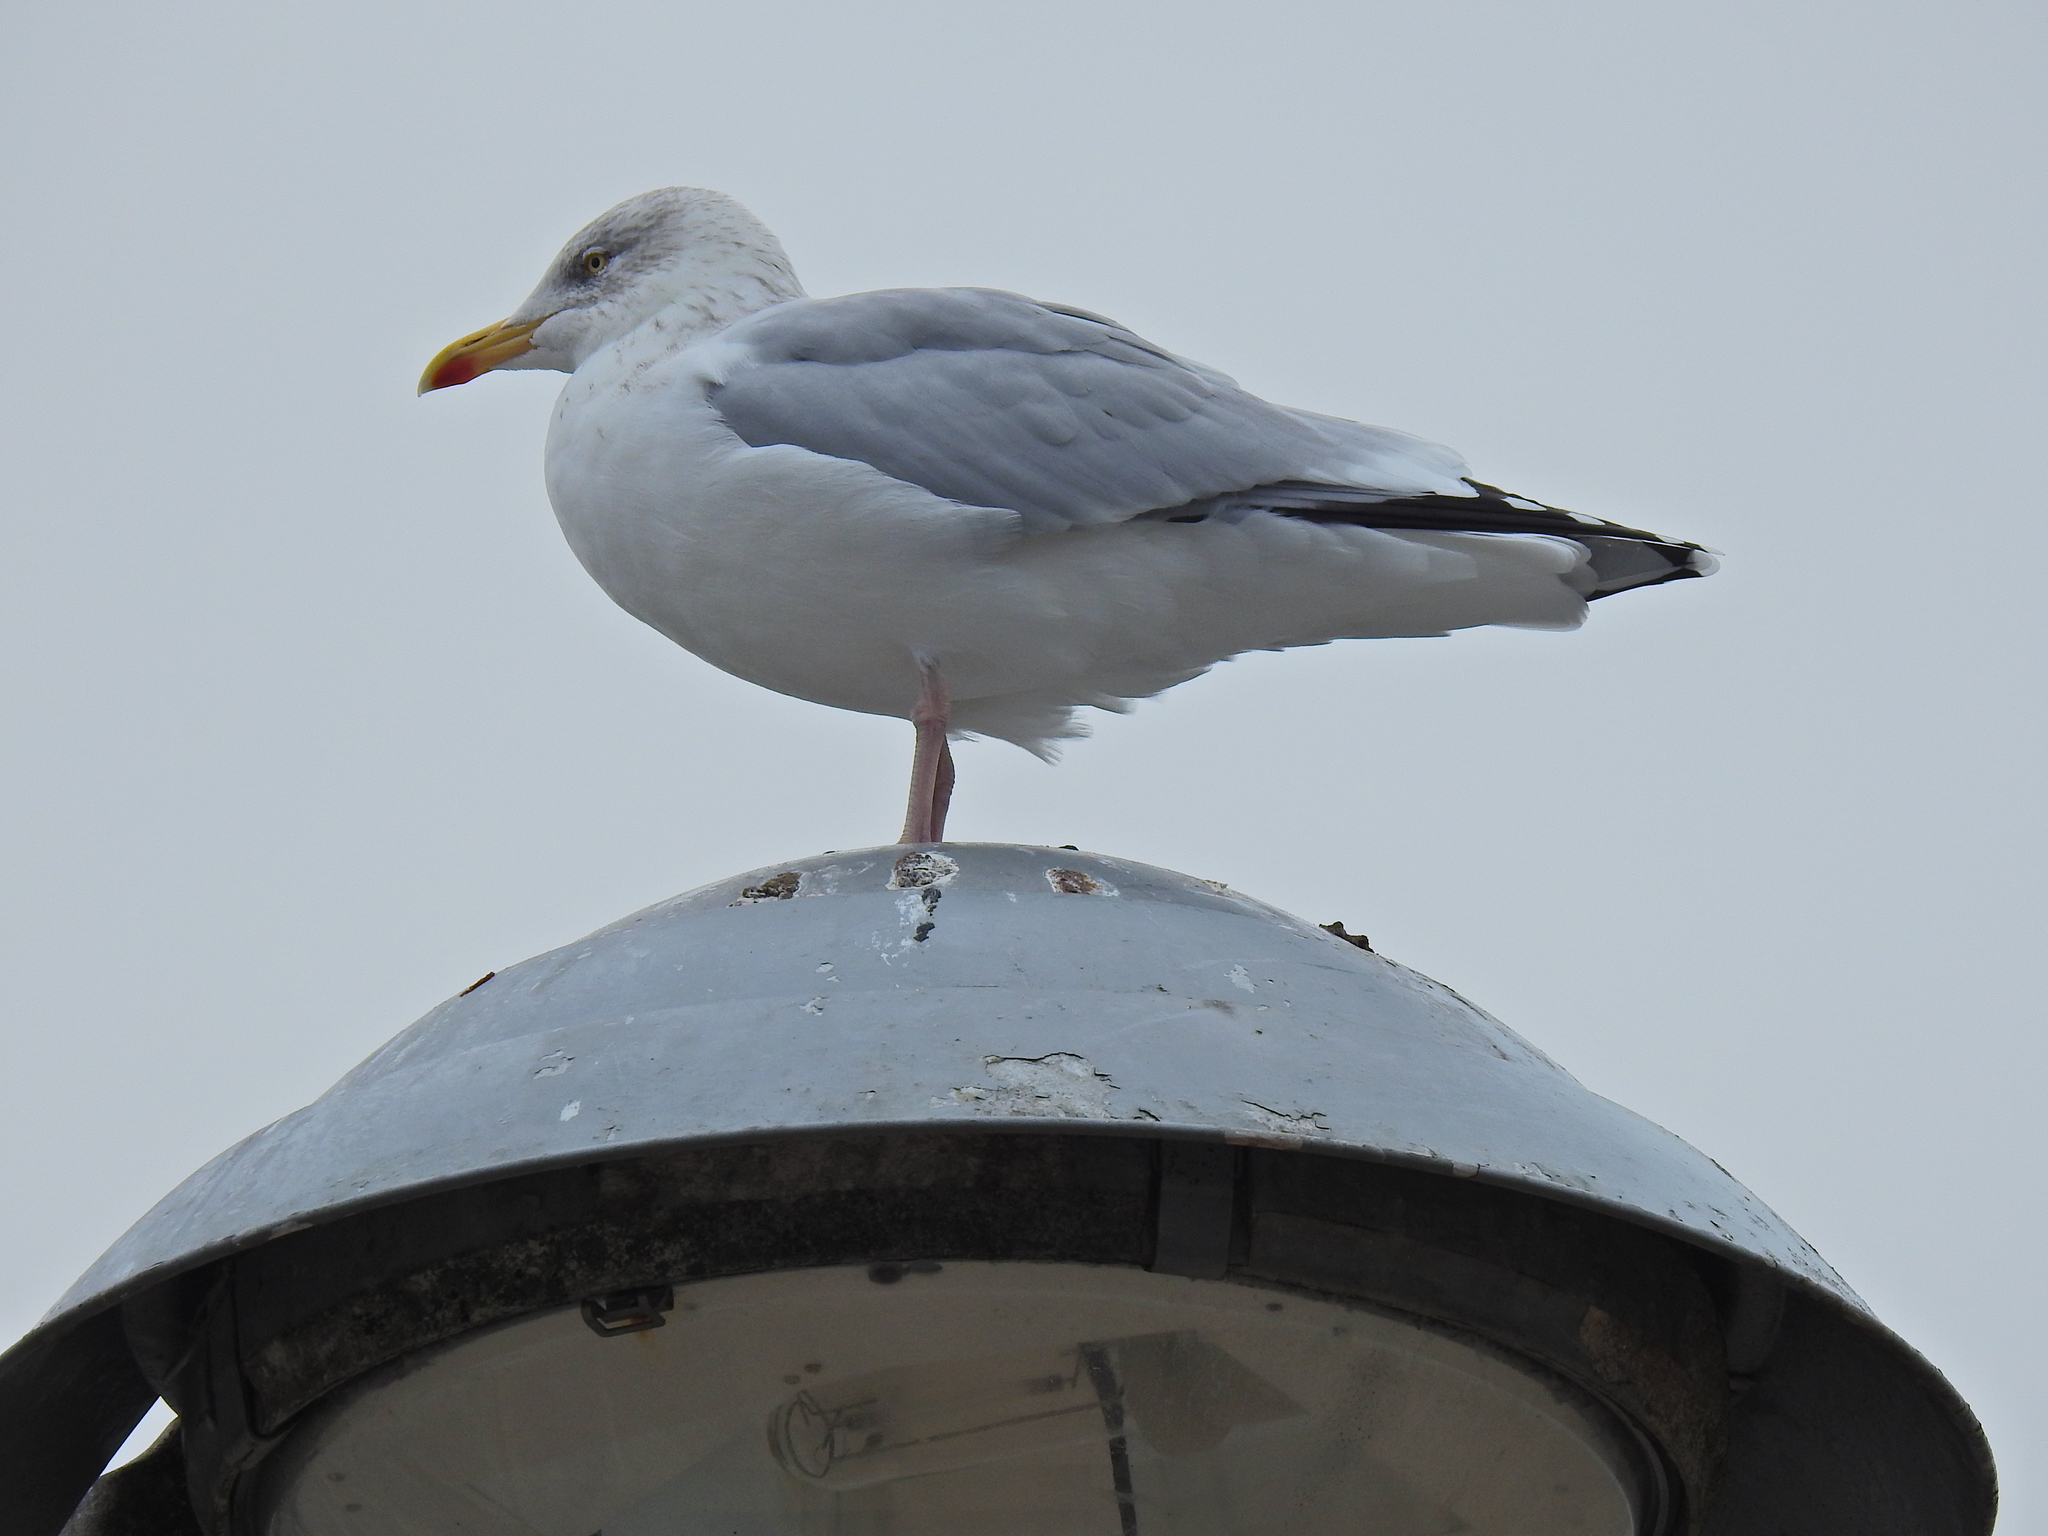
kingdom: Animalia
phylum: Chordata
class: Aves
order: Charadriiformes
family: Laridae
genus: Larus
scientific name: Larus argentatus
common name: Herring gull
